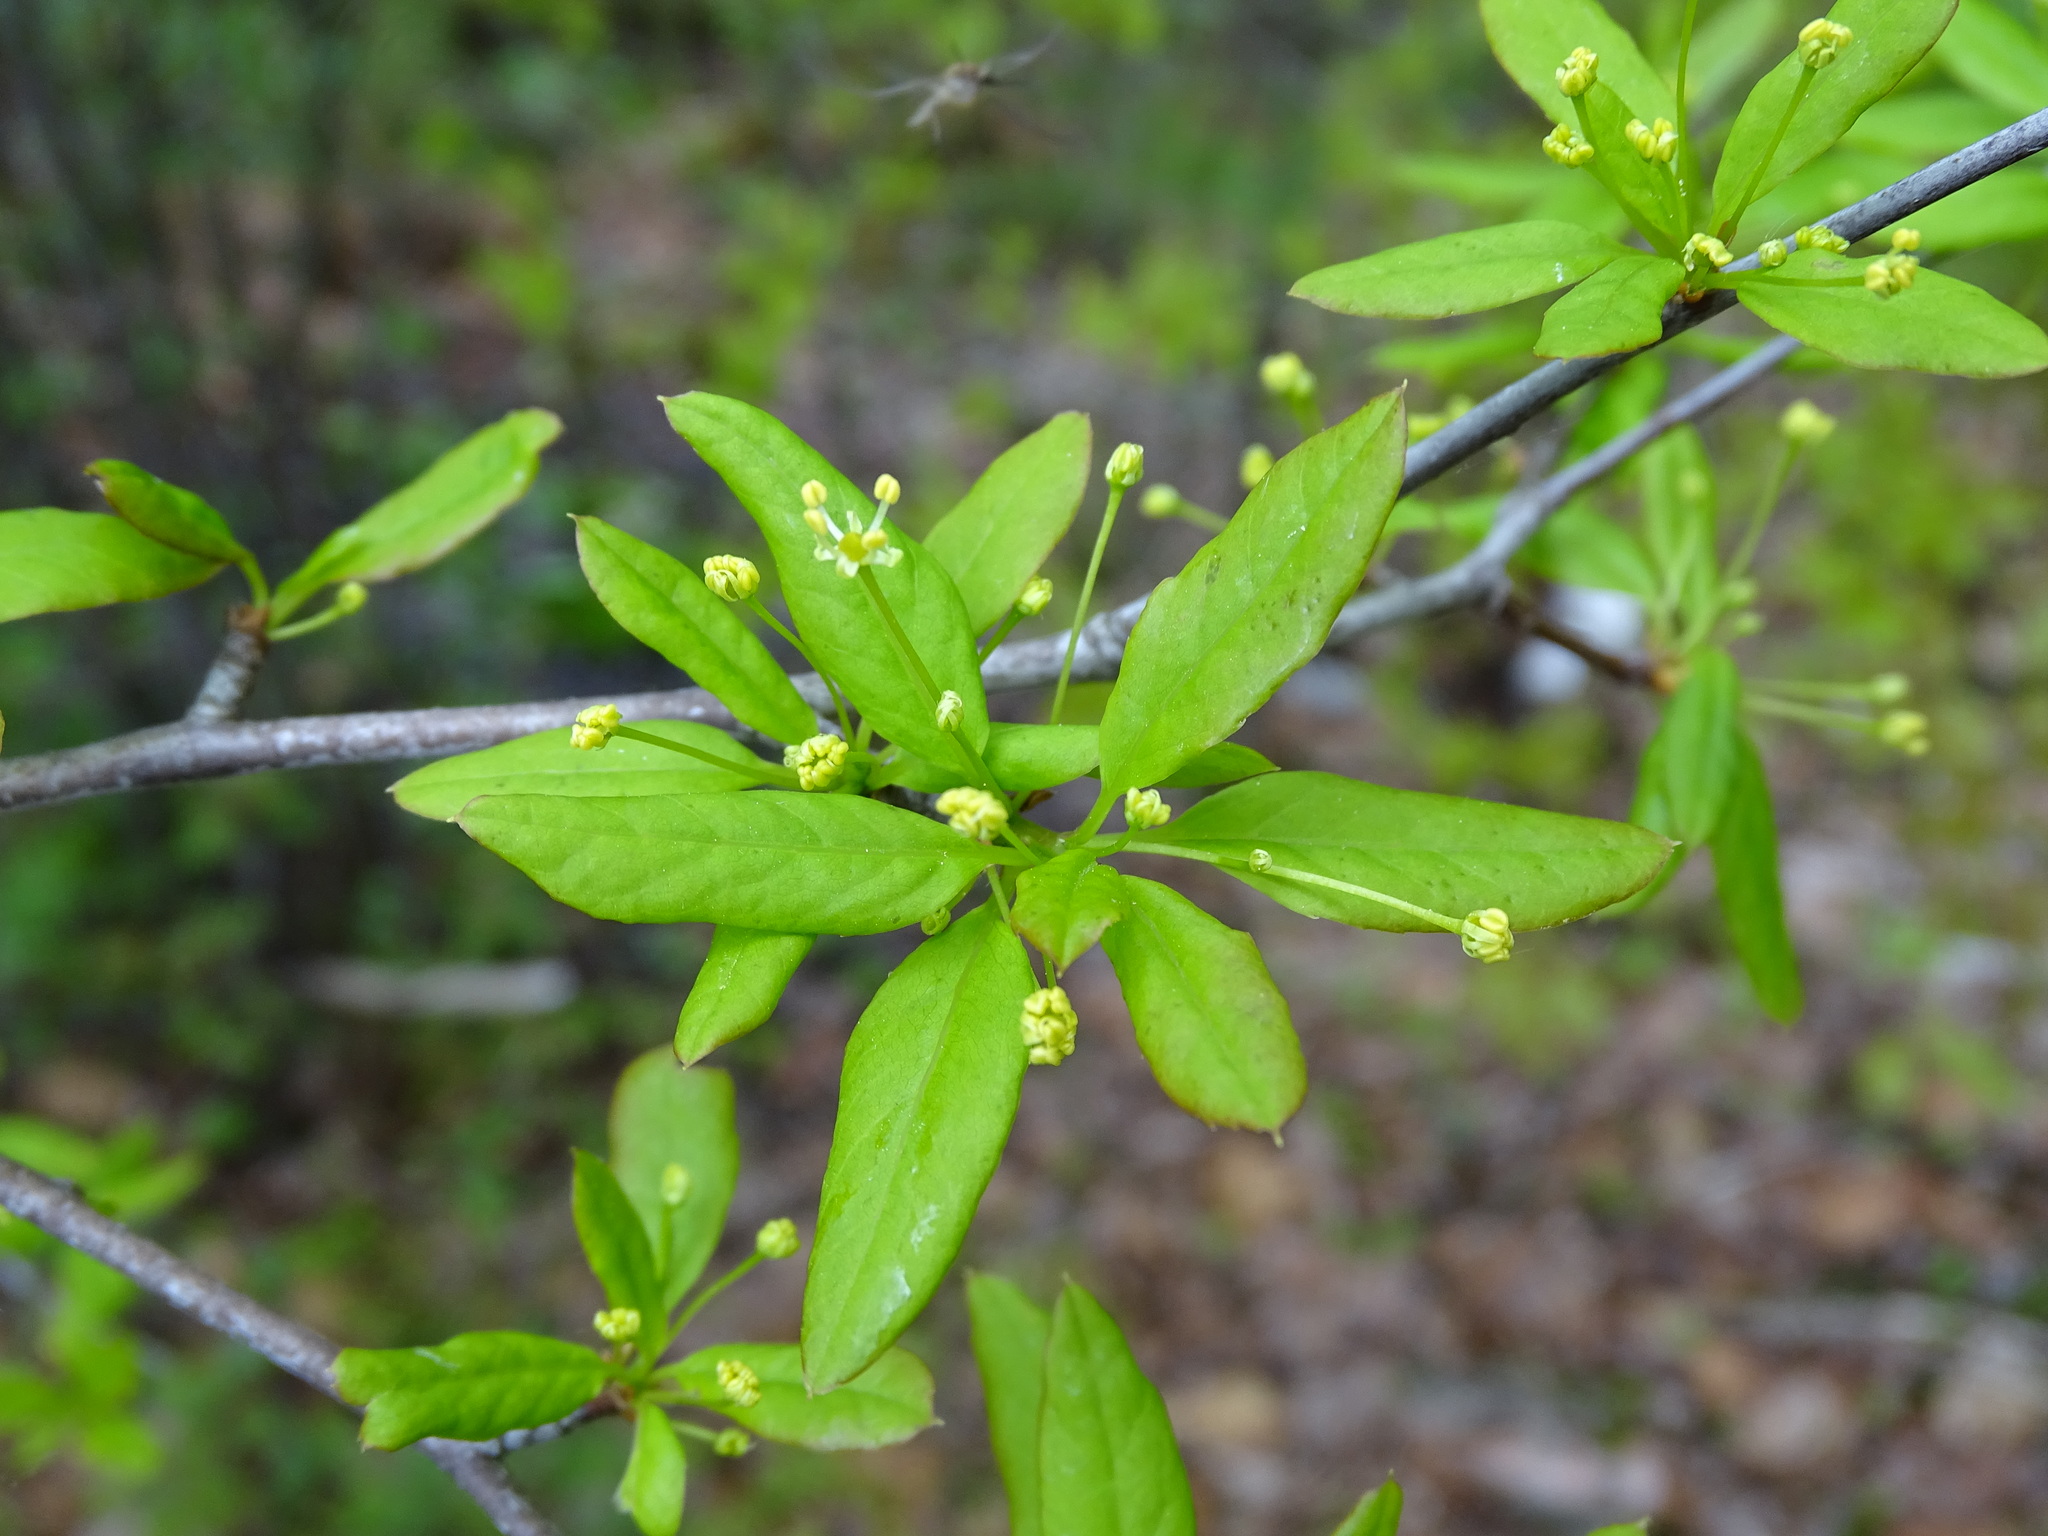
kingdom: Plantae
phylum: Tracheophyta
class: Magnoliopsida
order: Aquifoliales
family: Aquifoliaceae
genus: Ilex
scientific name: Ilex mucronata
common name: Catberry
